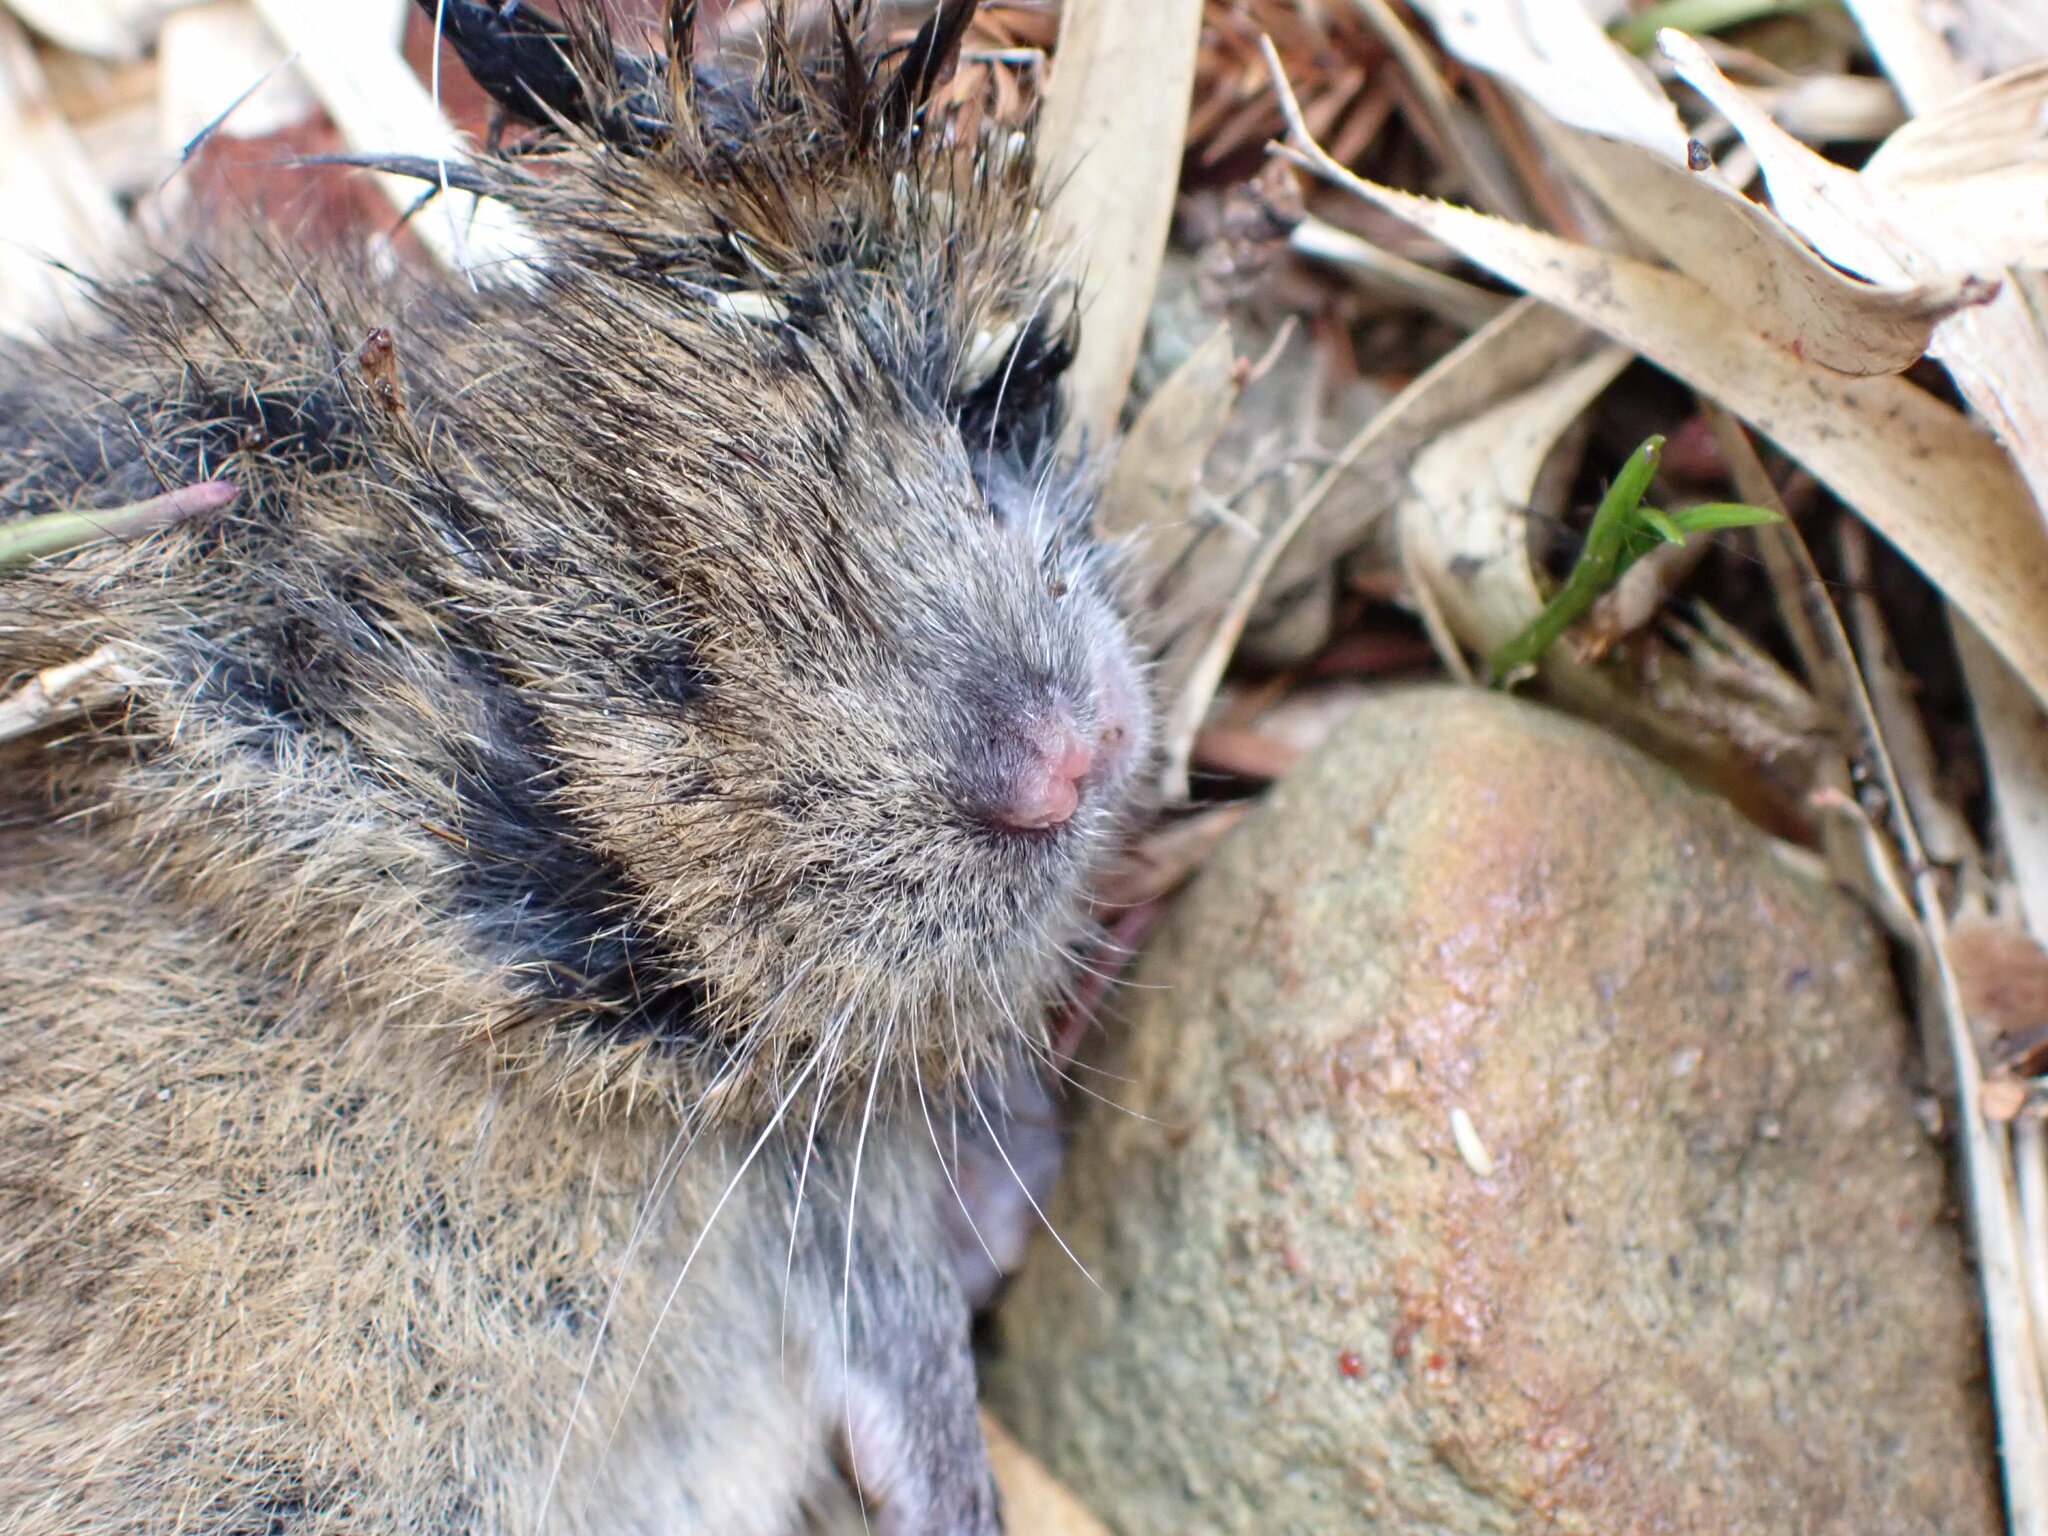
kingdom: Animalia
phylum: Chordata
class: Mammalia
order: Rodentia
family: Cricetidae
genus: Microtus
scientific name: Microtus kikuchii
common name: Taiwan vole
